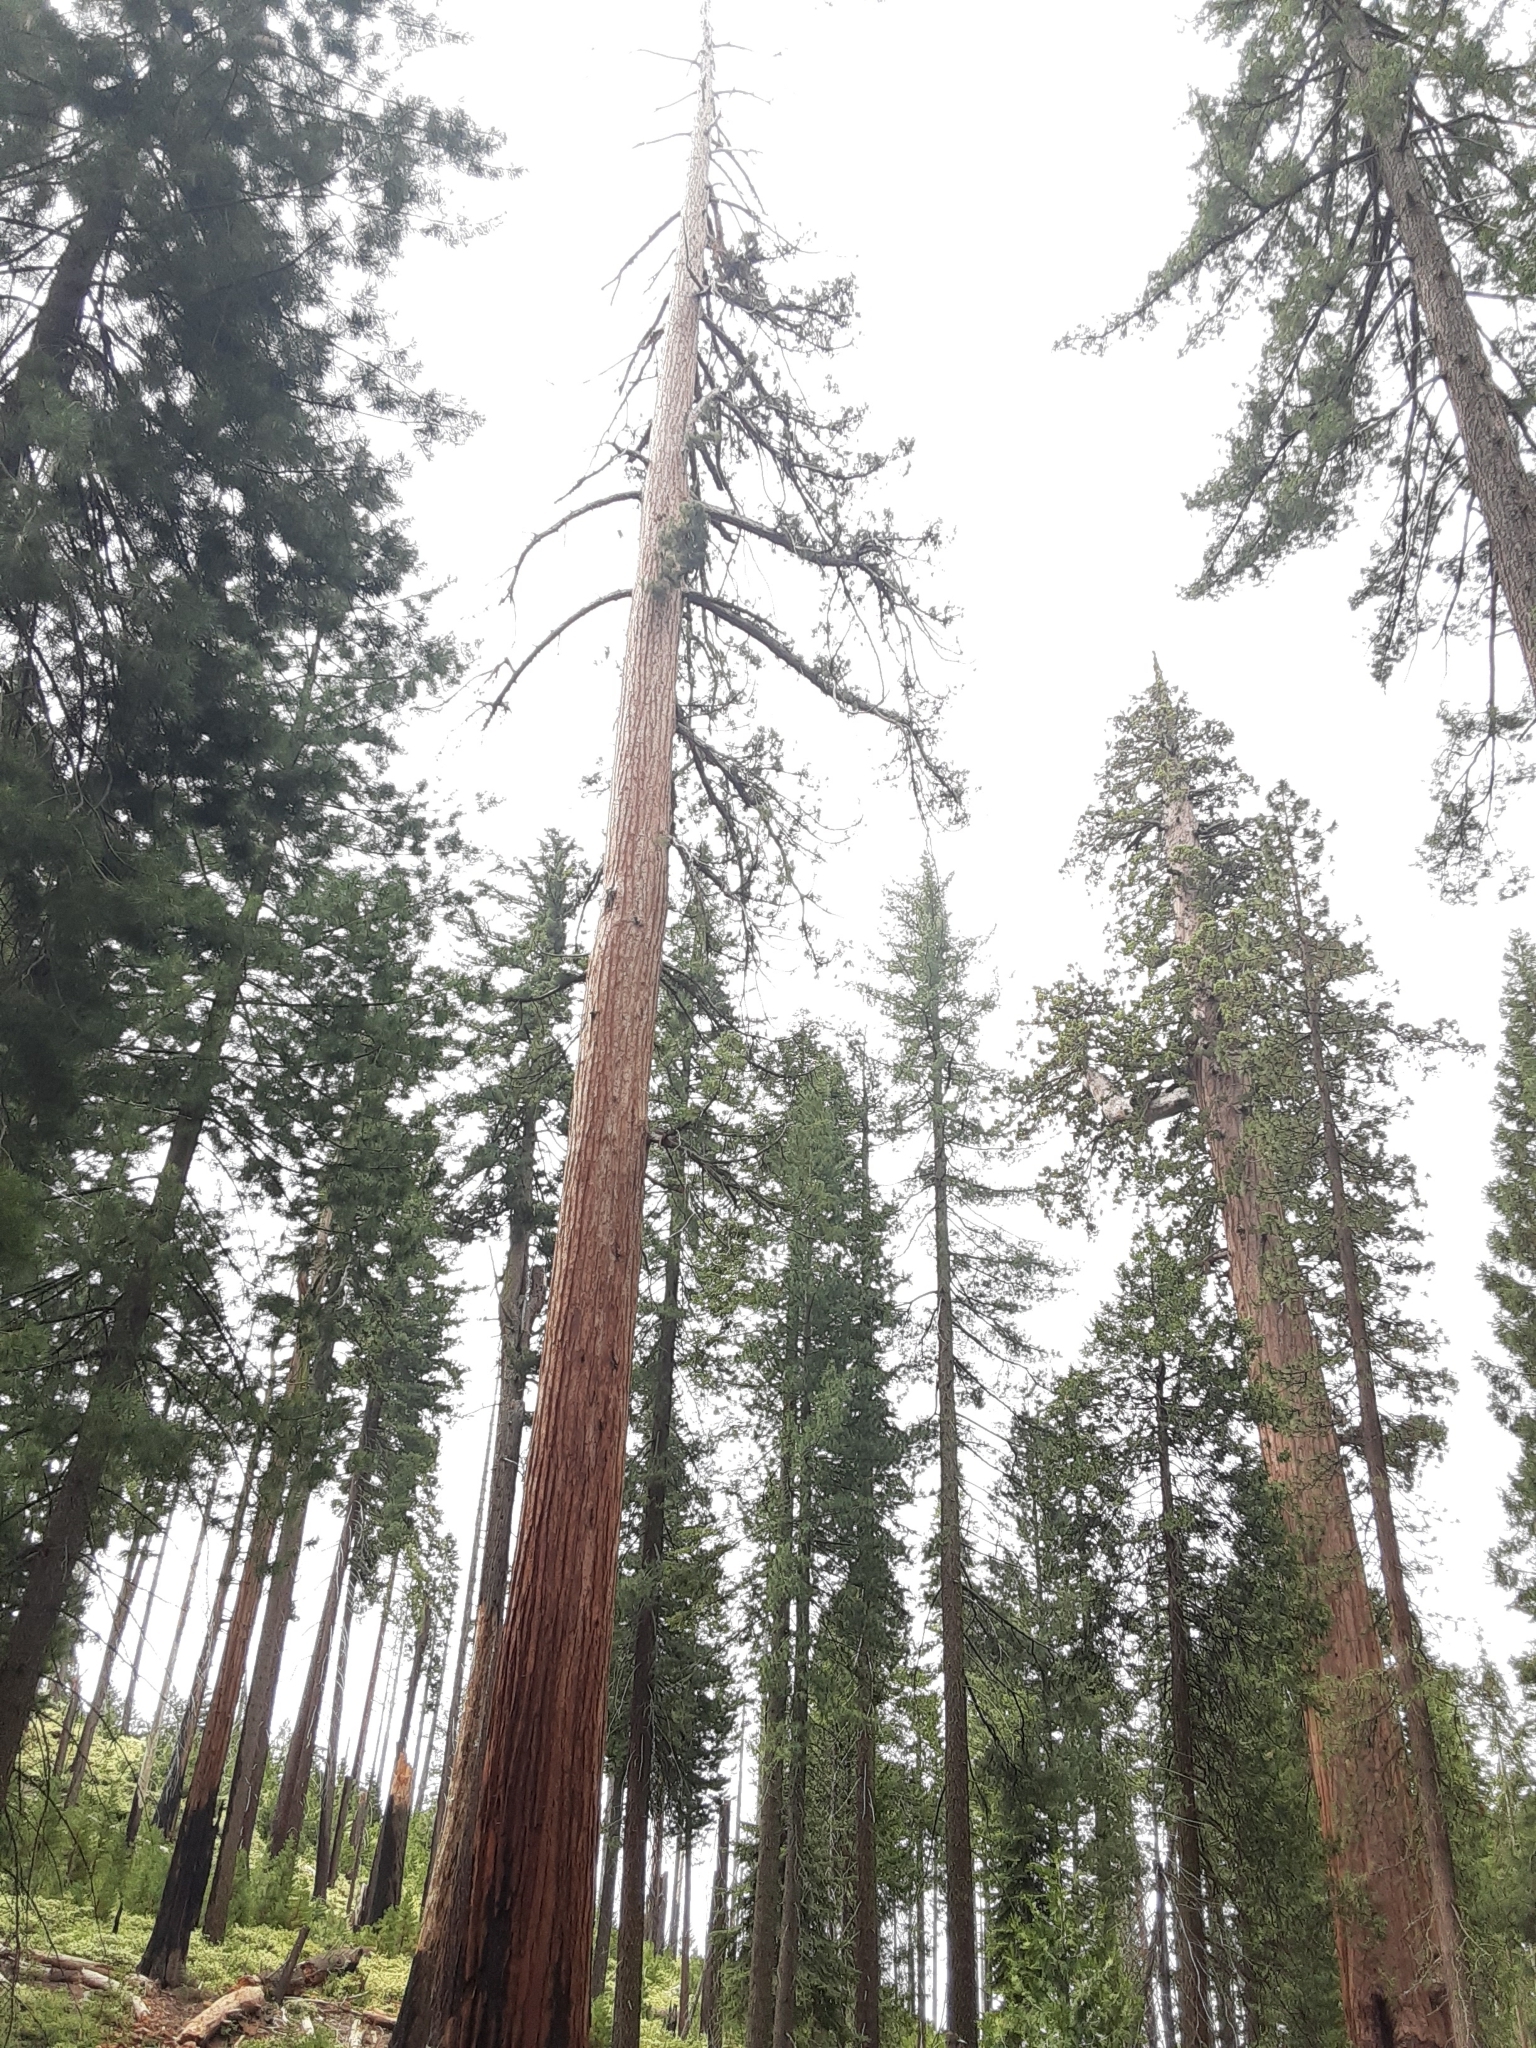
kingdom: Plantae
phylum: Tracheophyta
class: Pinopsida
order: Pinales
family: Cupressaceae
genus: Sequoiadendron
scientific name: Sequoiadendron giganteum
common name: Wellingtonia
